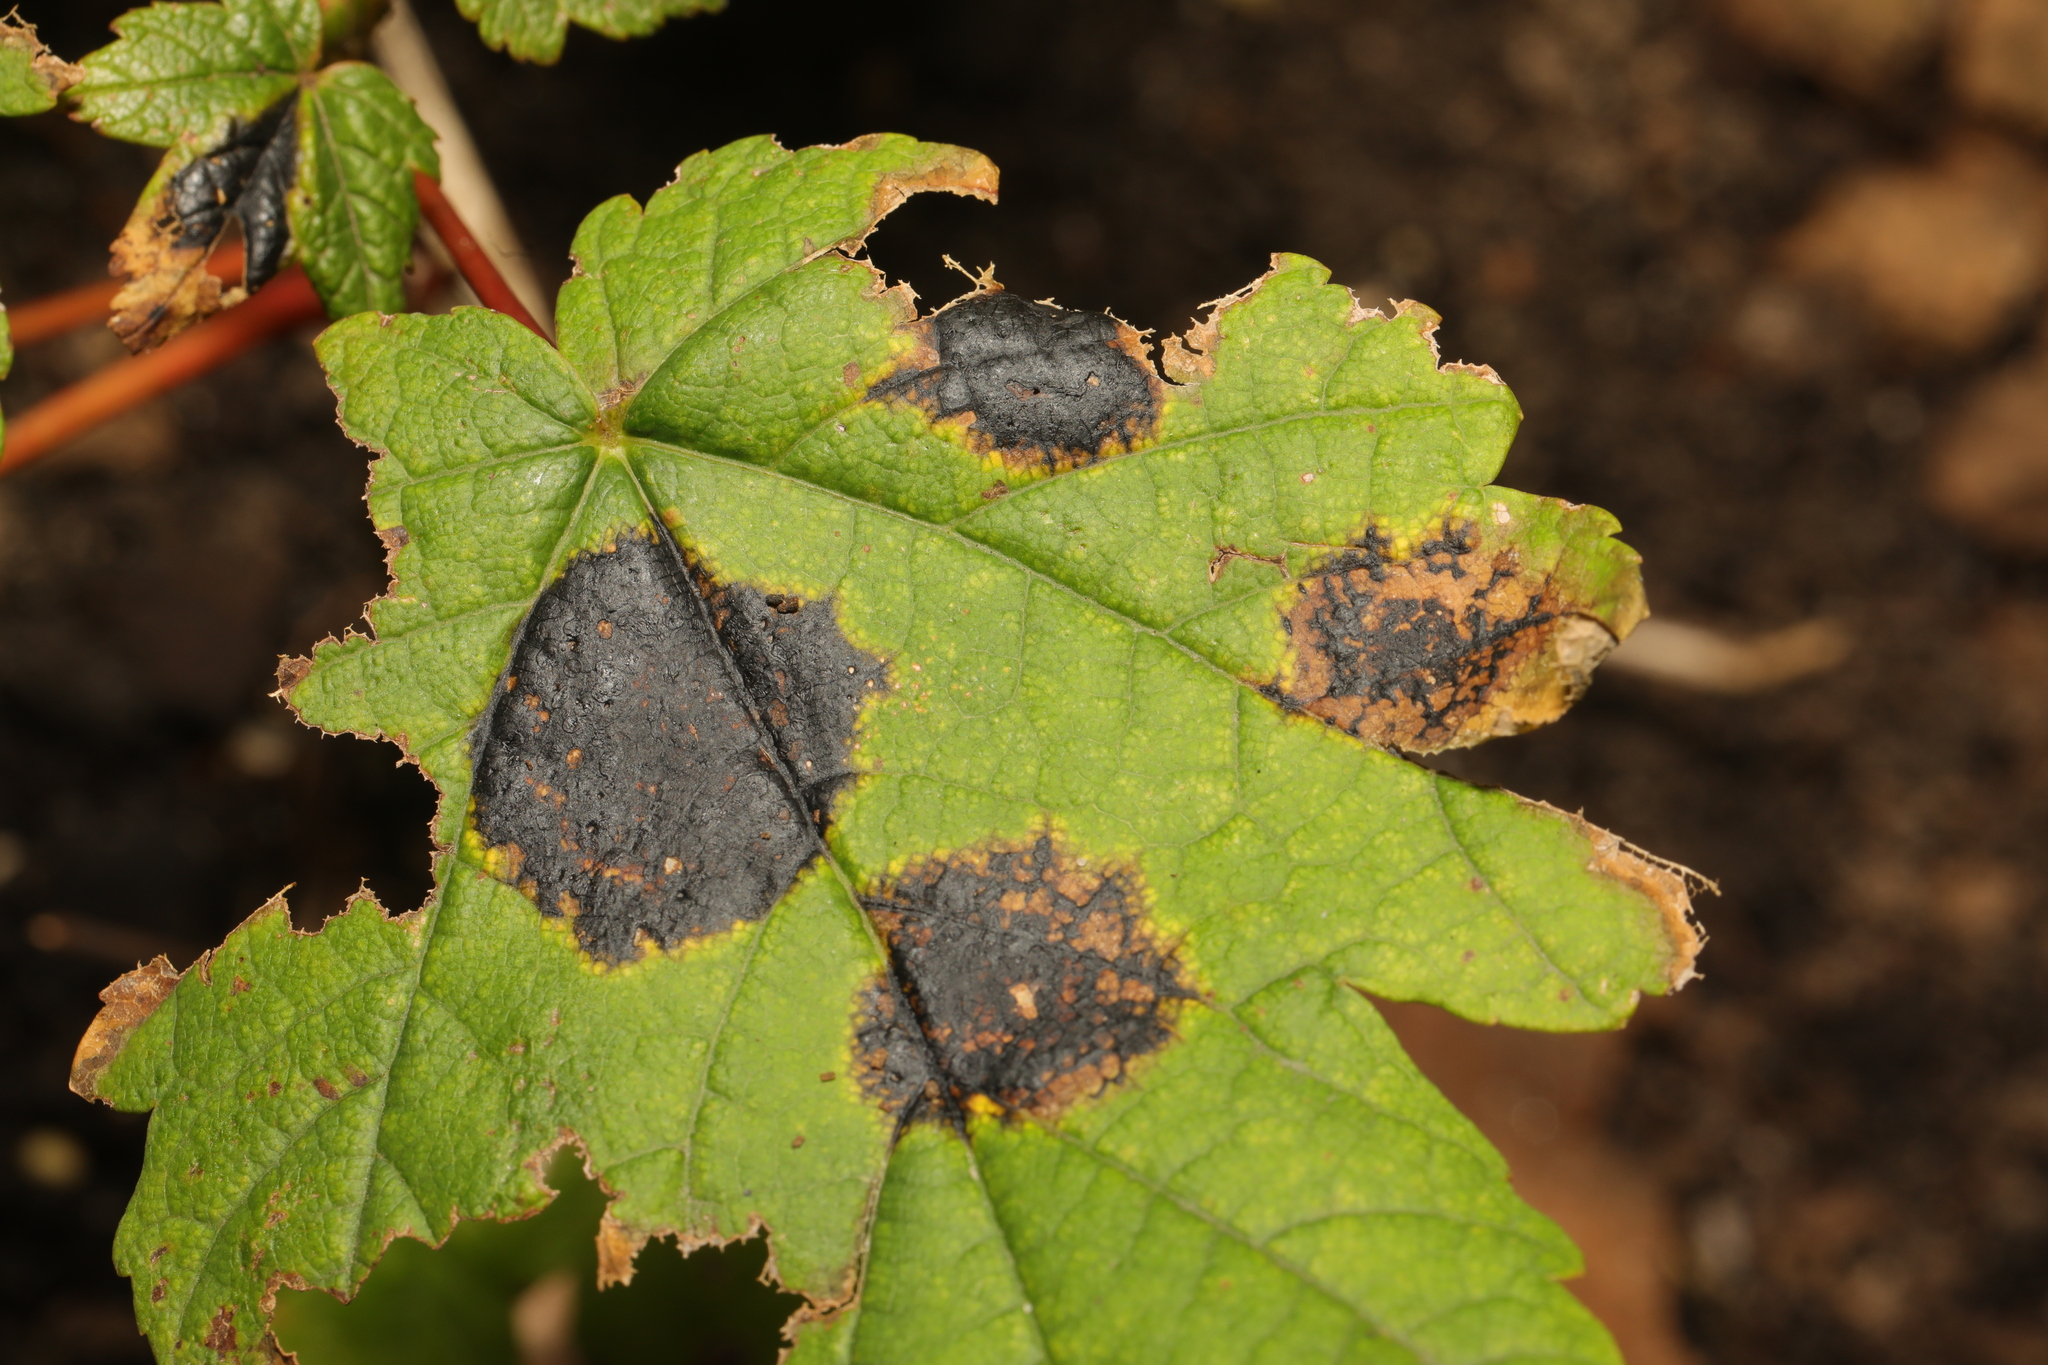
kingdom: Fungi
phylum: Ascomycota
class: Leotiomycetes
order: Rhytismatales
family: Rhytismataceae
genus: Rhytisma
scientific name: Rhytisma acerinum
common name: European tar spot
